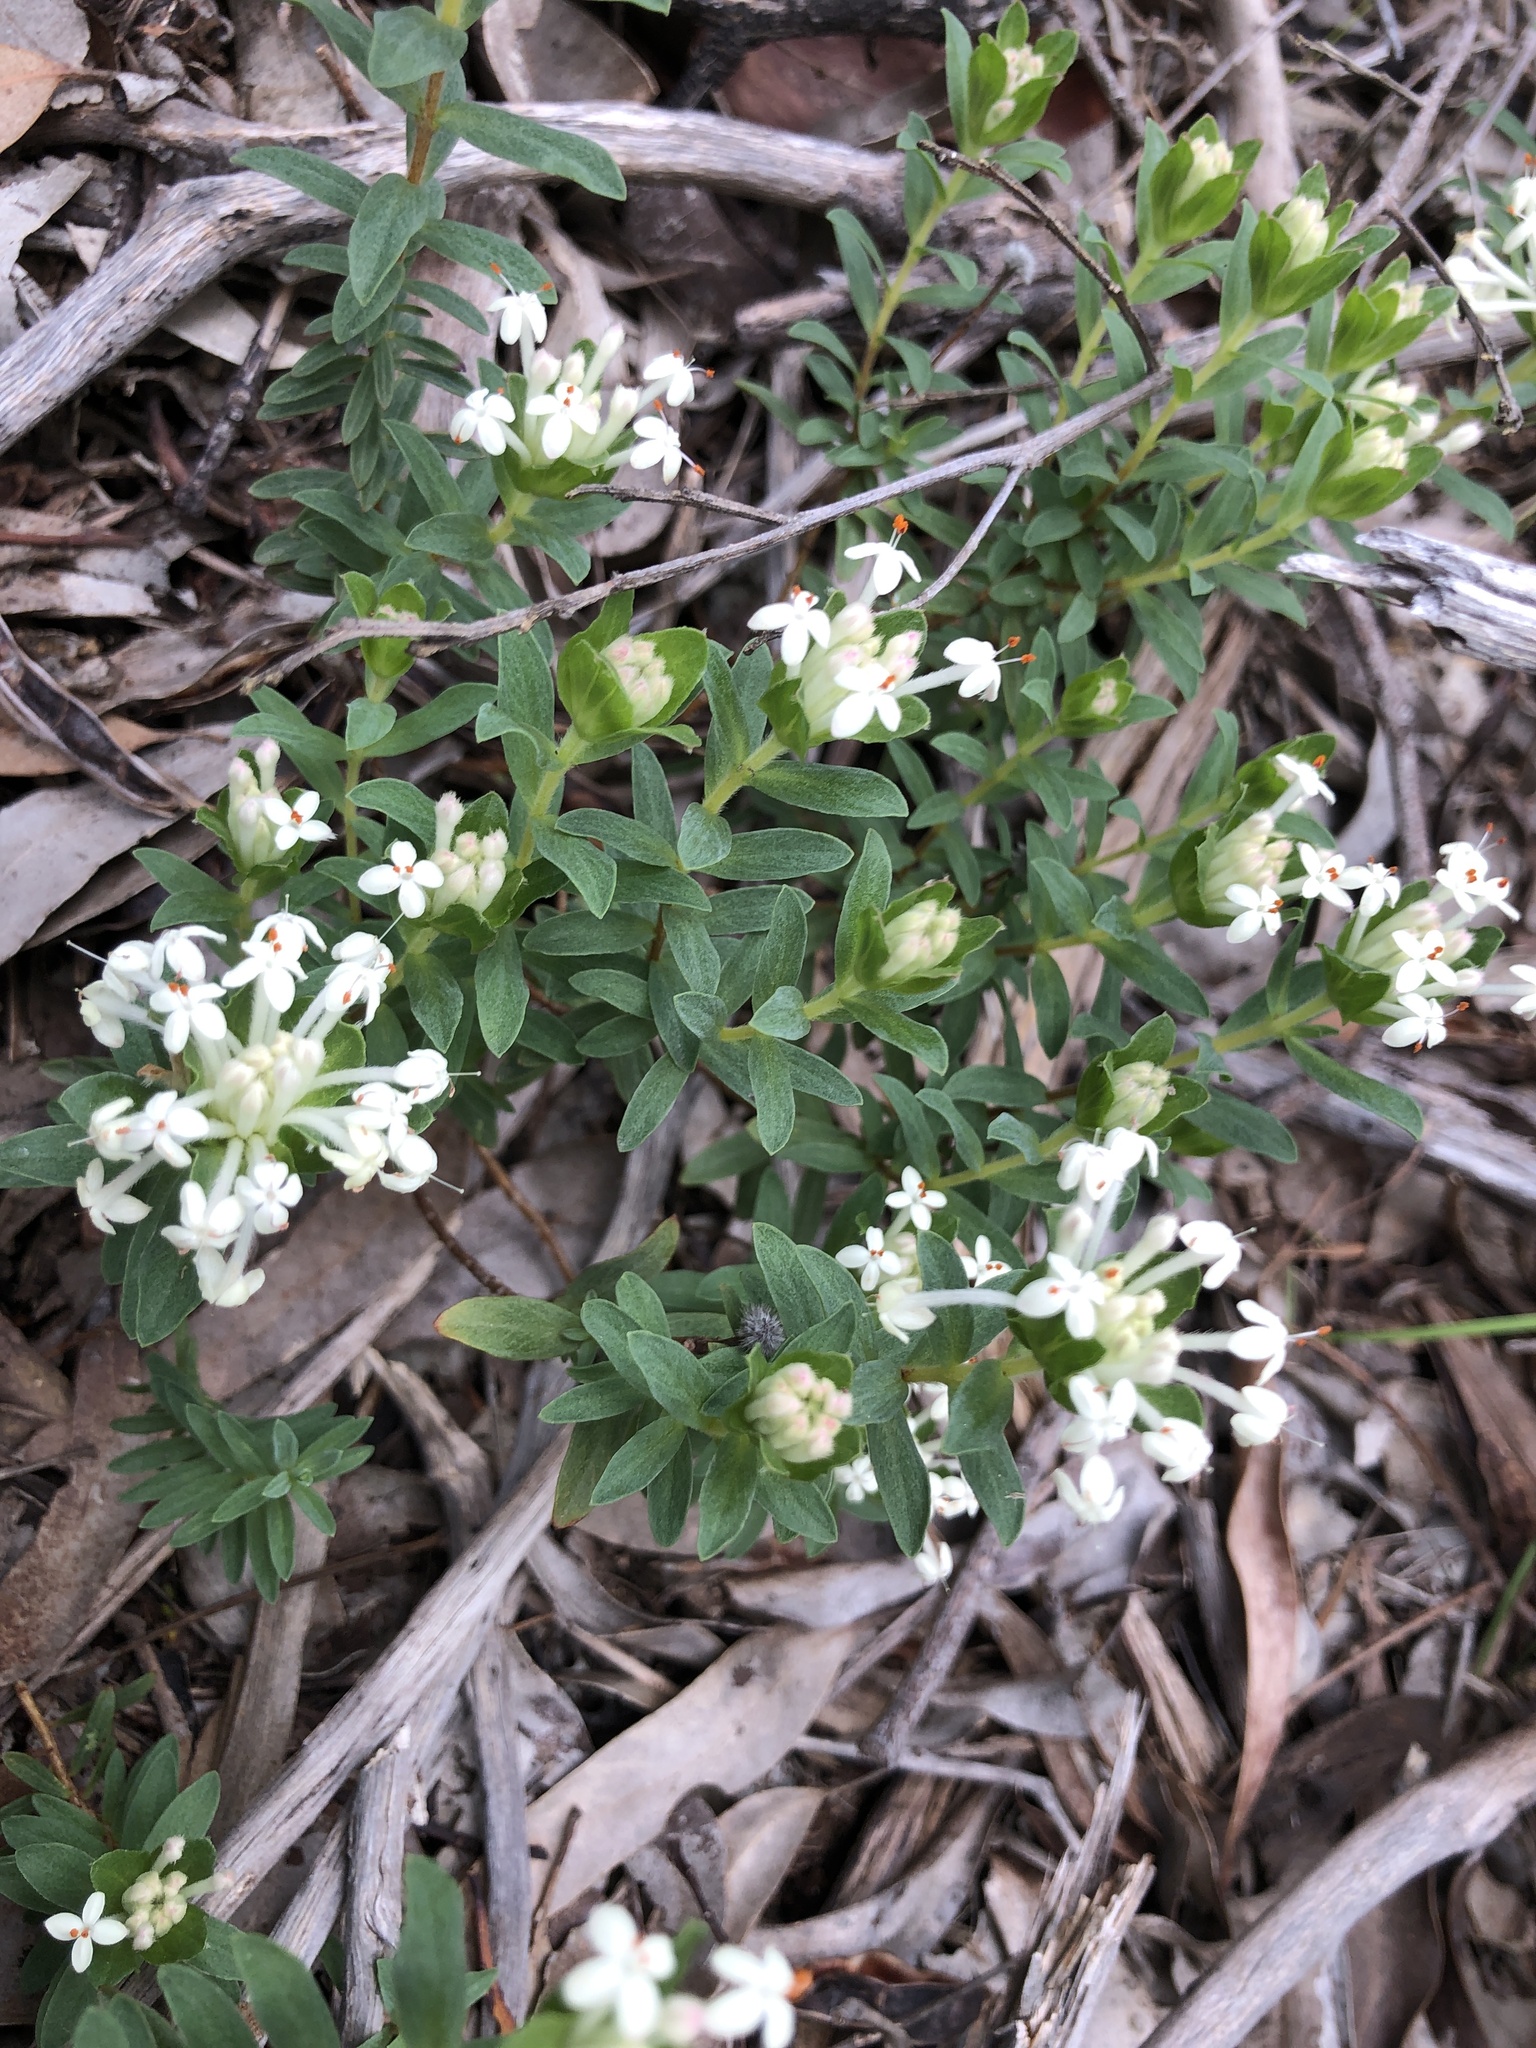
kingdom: Plantae
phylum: Tracheophyta
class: Magnoliopsida
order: Malvales
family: Thymelaeaceae
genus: Pimelea
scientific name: Pimelea humilis
